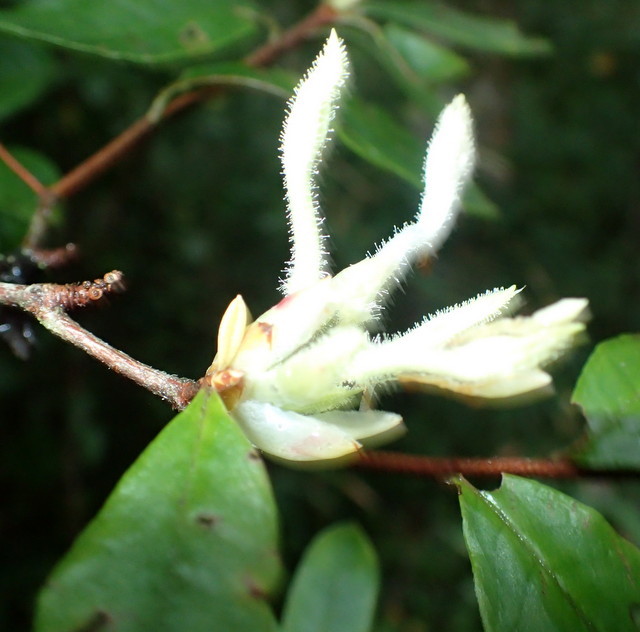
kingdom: Plantae
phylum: Tracheophyta
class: Magnoliopsida
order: Ericales
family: Ericaceae
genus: Rhododendron
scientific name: Rhododendron serrulatum
